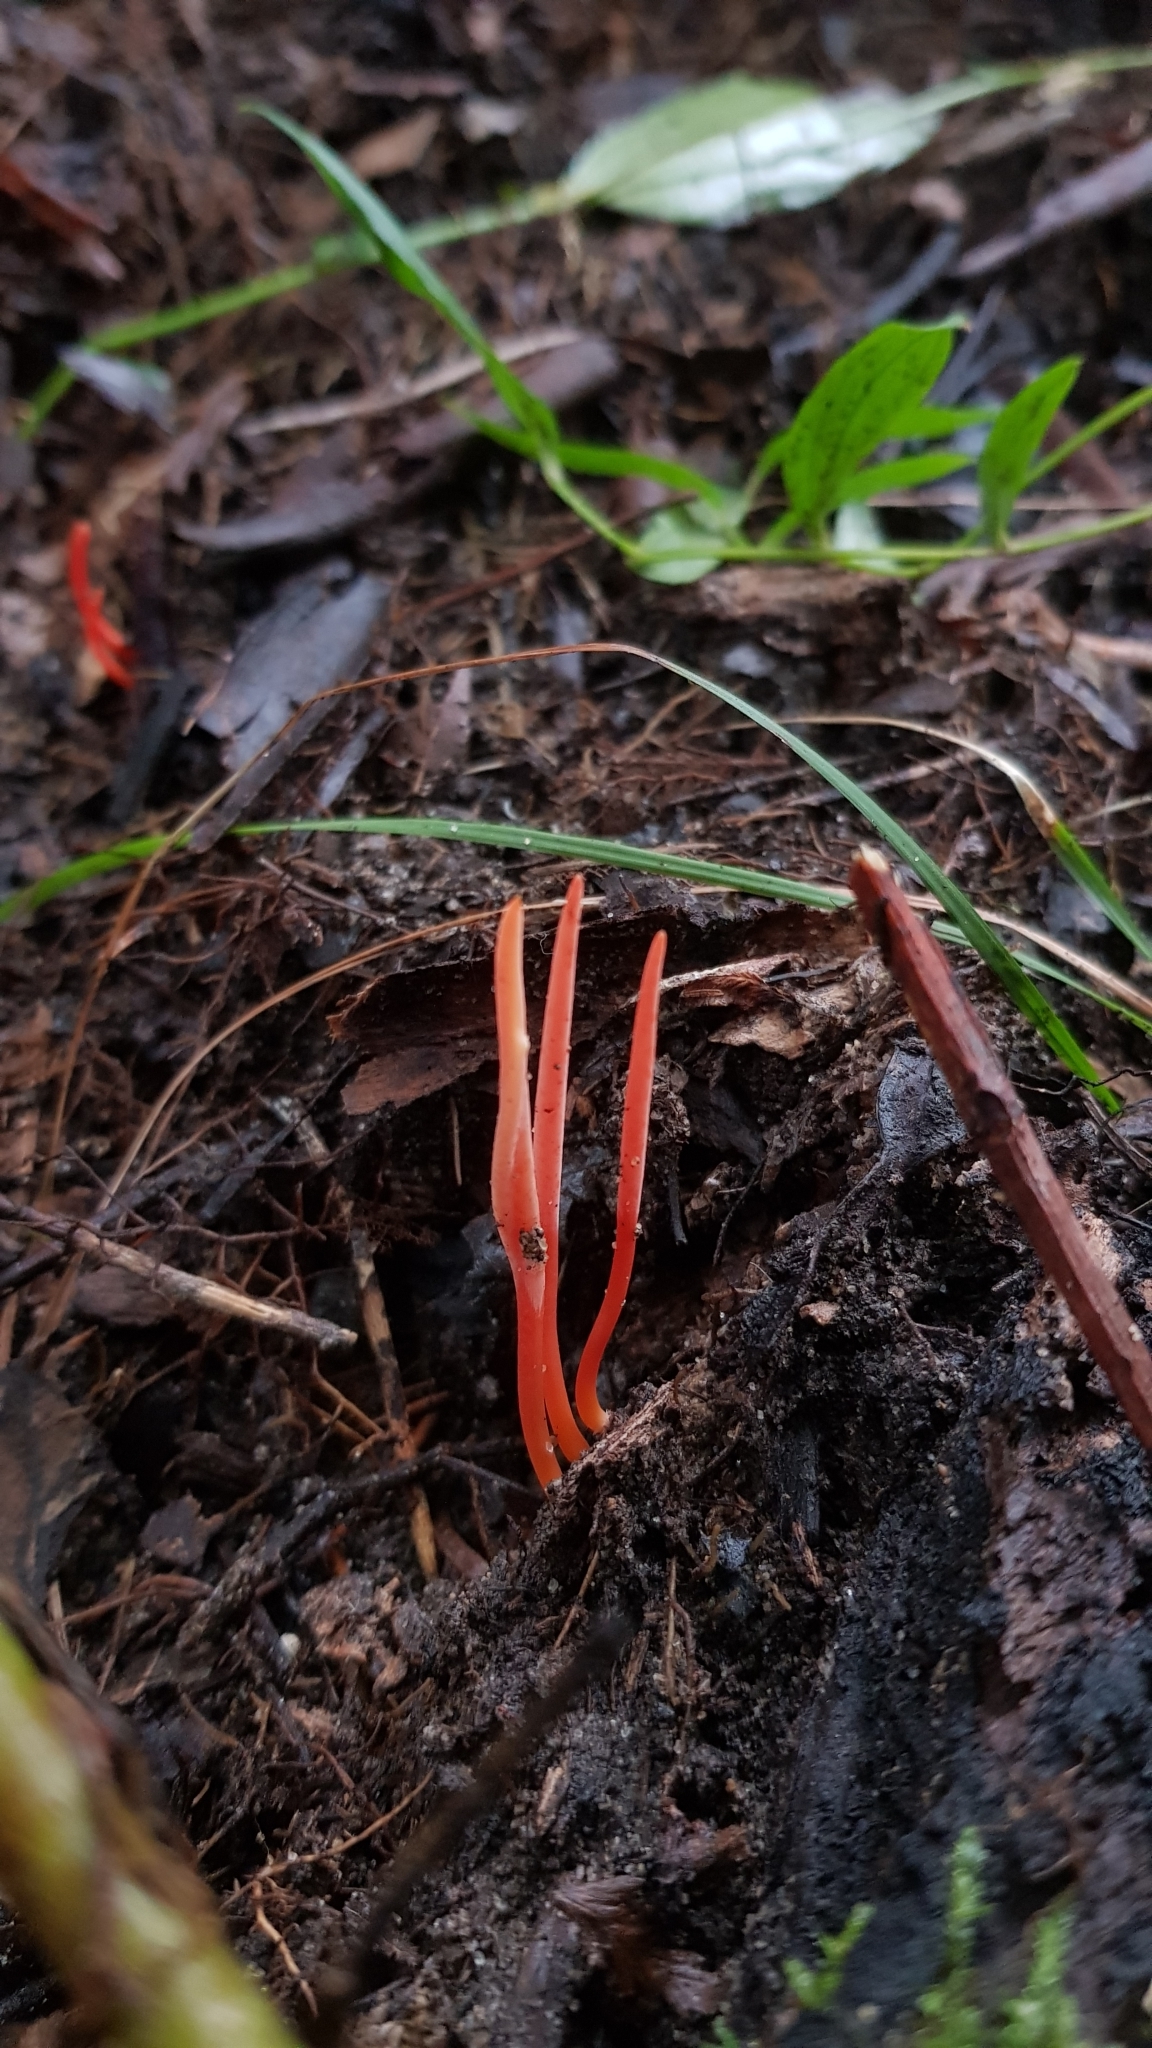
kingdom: Fungi
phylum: Basidiomycota
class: Agaricomycetes
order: Agaricales
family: Clavariaceae
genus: Clavulinopsis
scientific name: Clavulinopsis corallinorosacea
